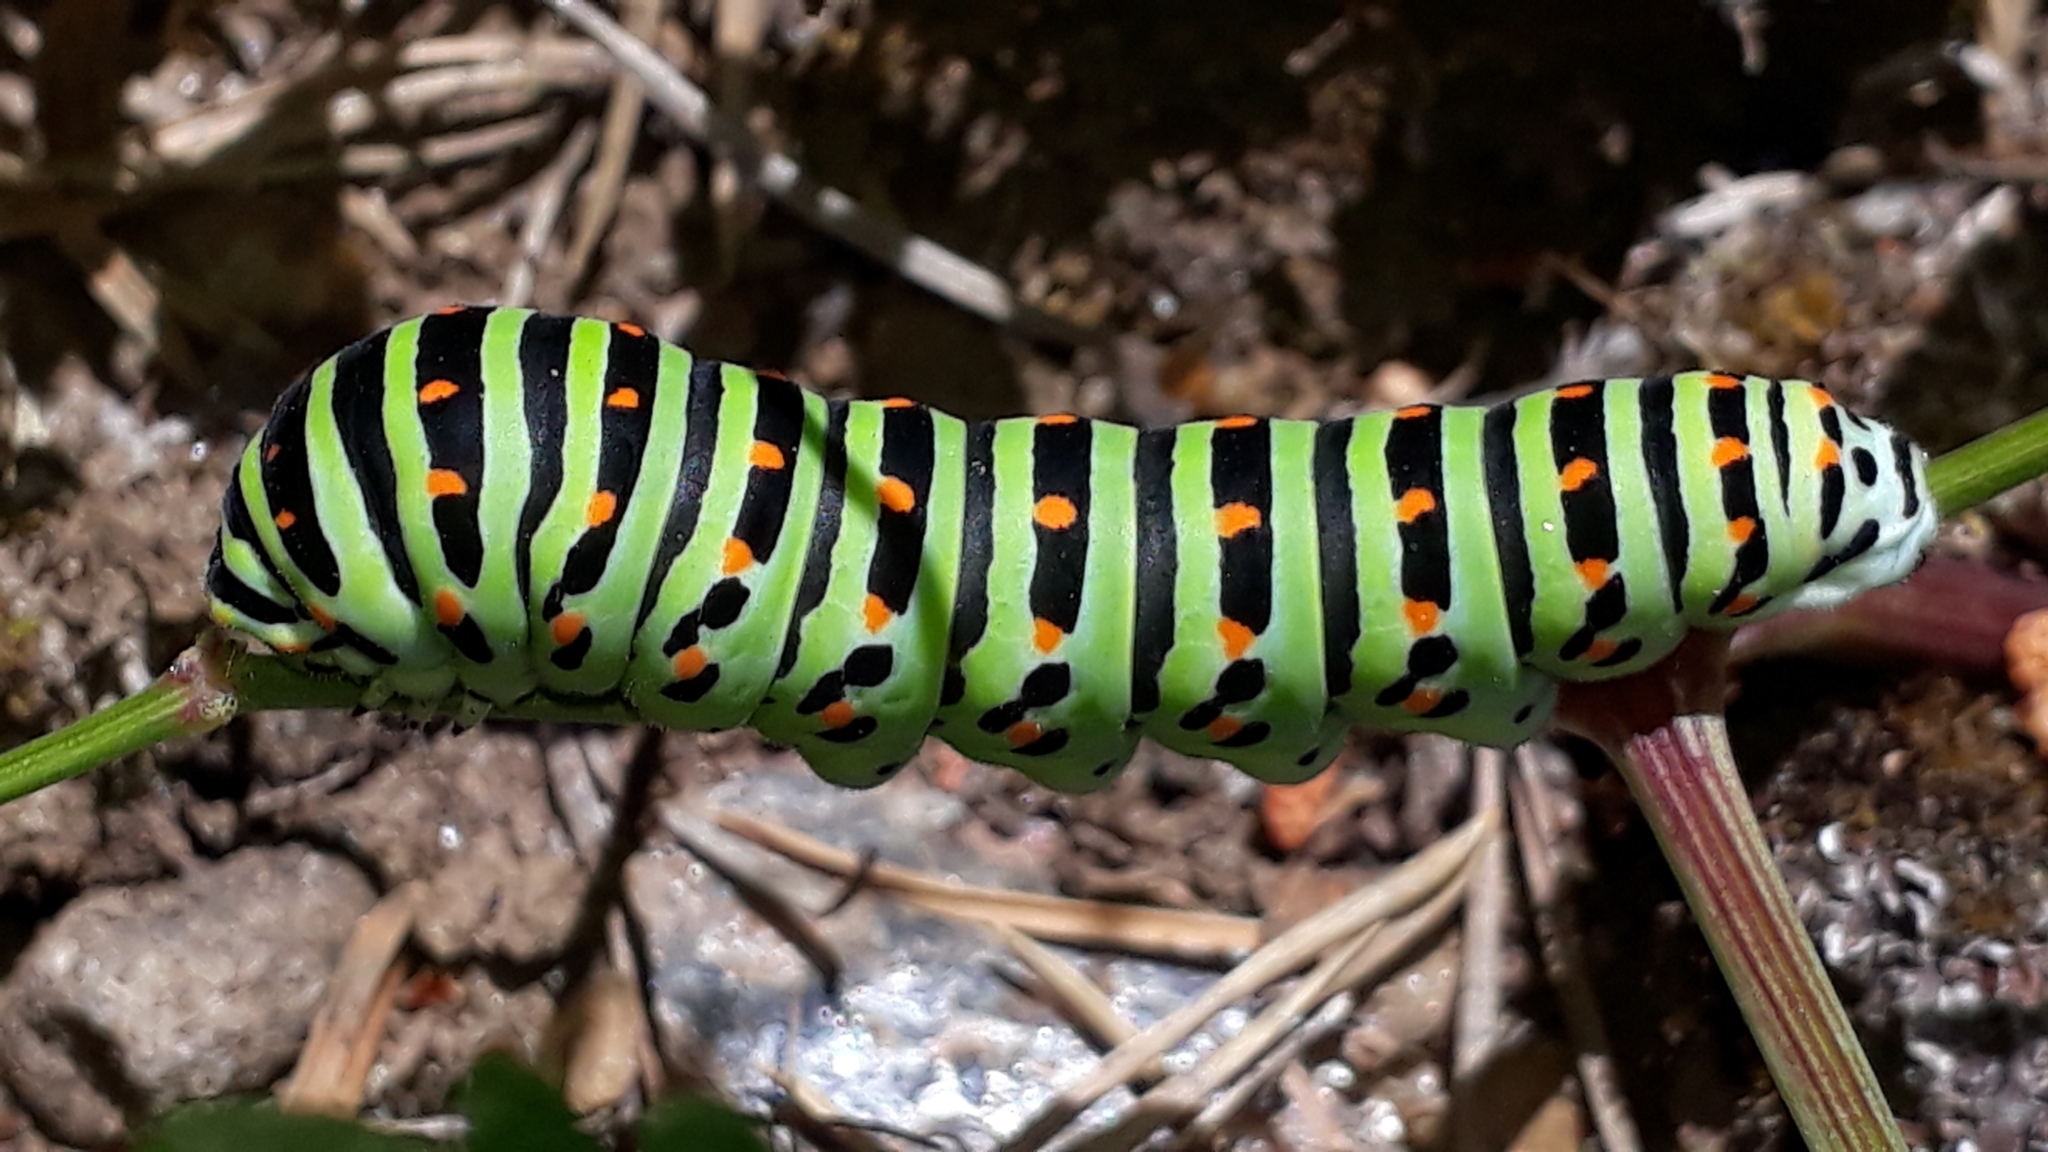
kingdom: Animalia
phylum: Arthropoda
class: Insecta
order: Lepidoptera
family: Papilionidae
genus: Papilio
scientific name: Papilio machaon
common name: Swallowtail
